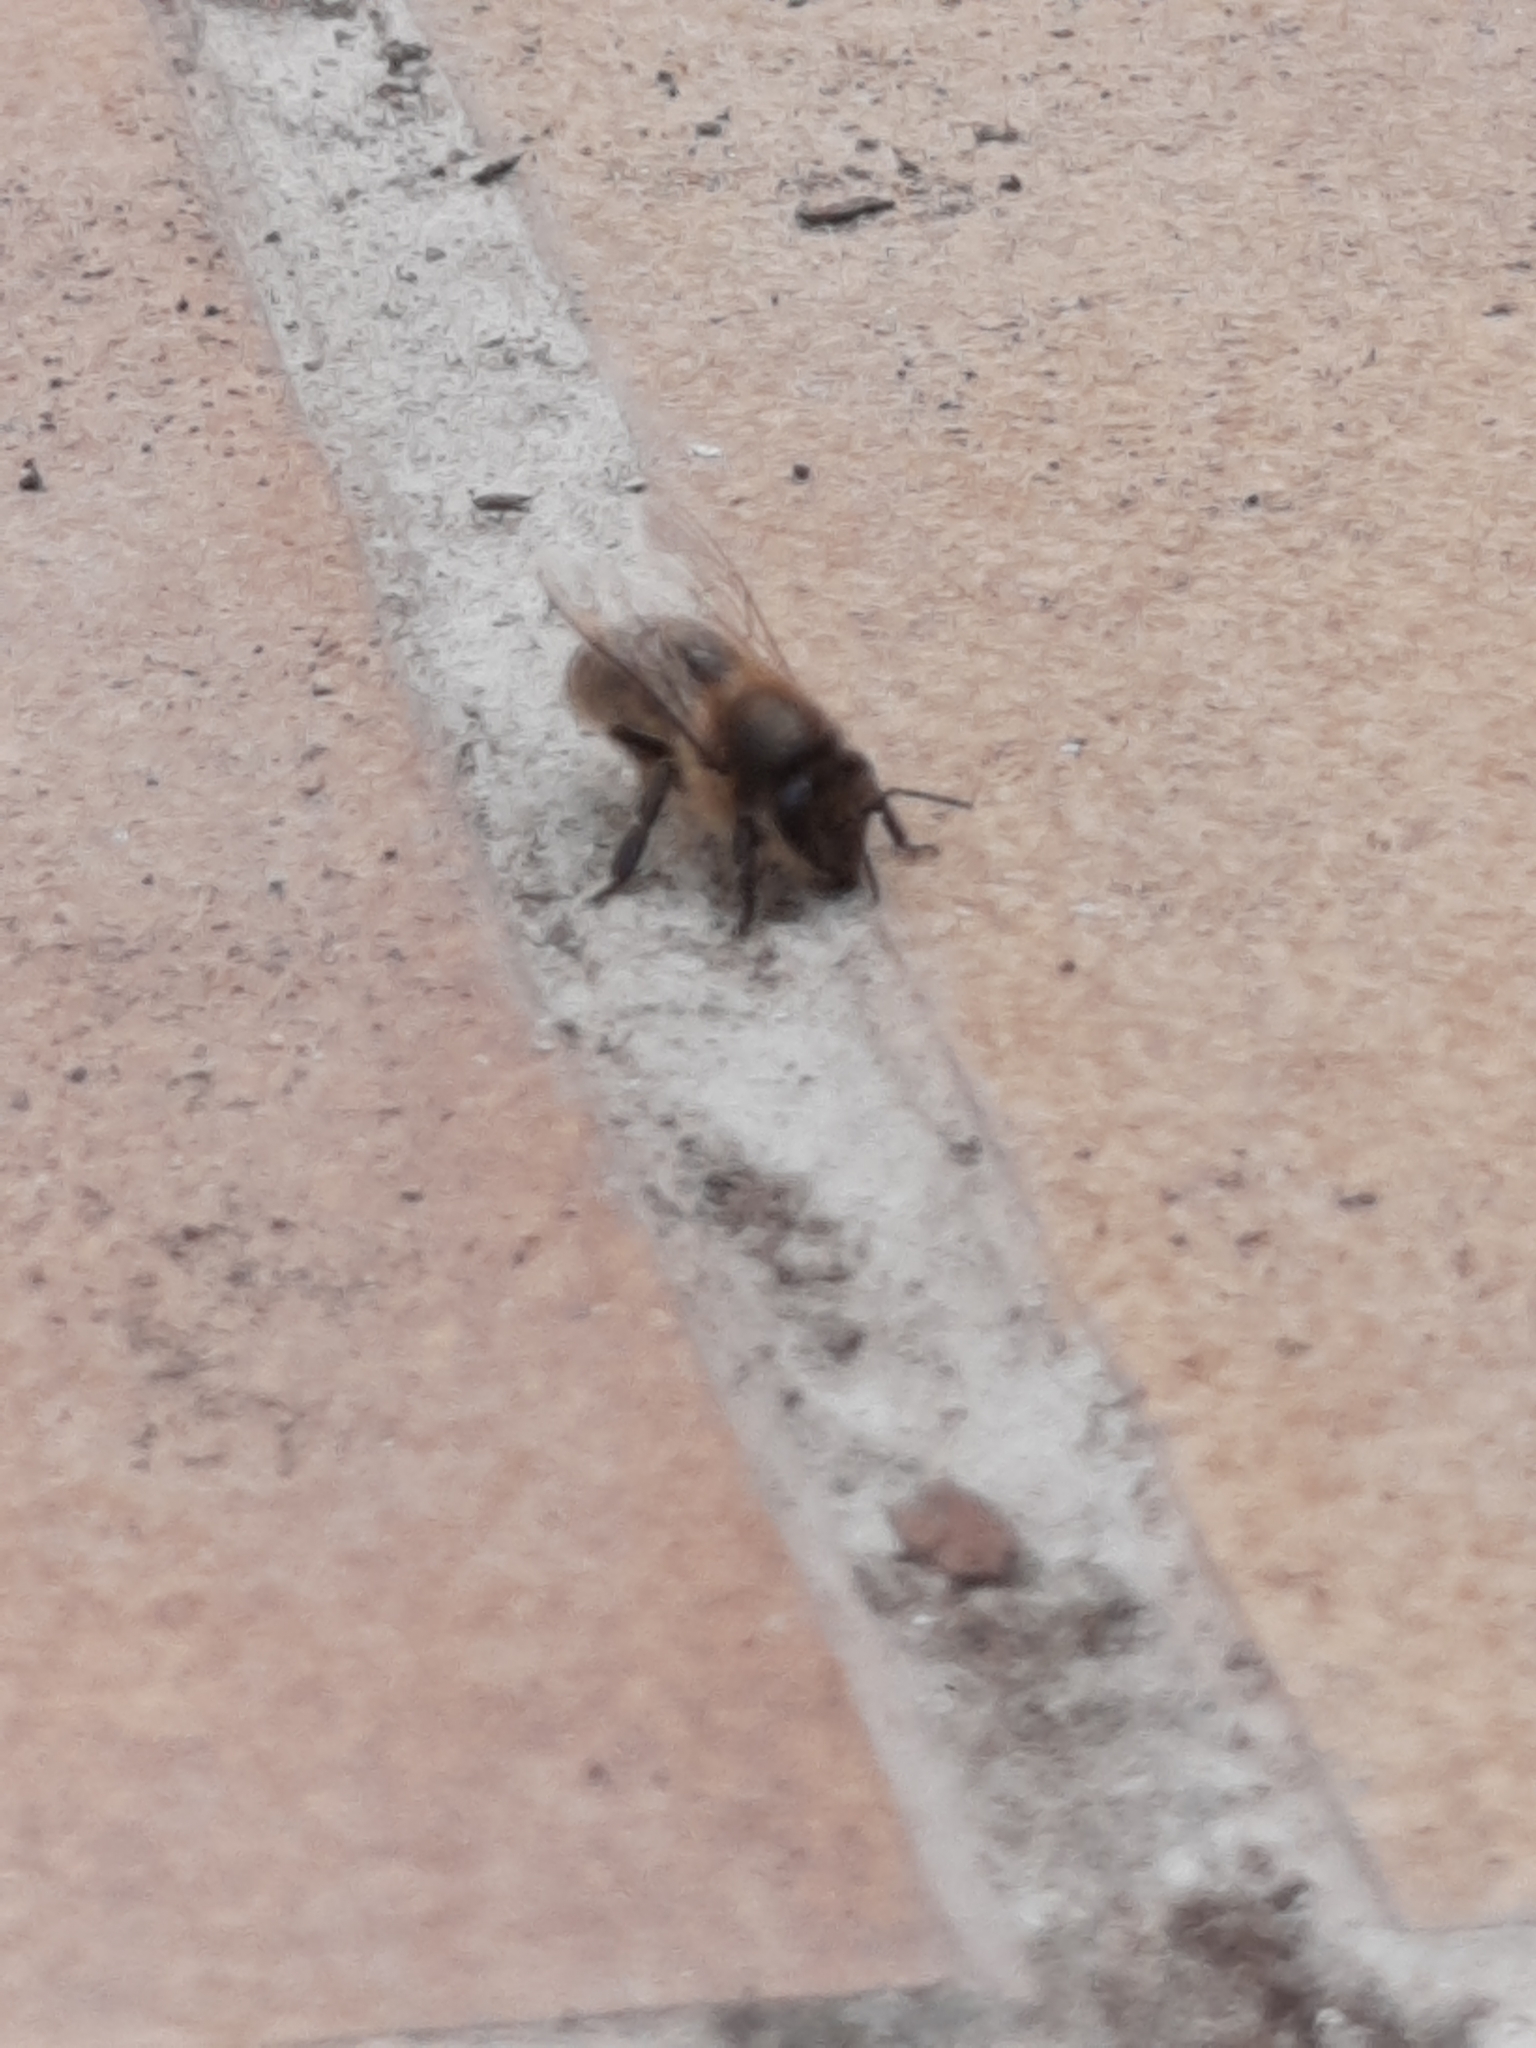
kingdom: Animalia
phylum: Arthropoda
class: Insecta
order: Hymenoptera
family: Apidae
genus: Apis
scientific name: Apis mellifera
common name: Honey bee
